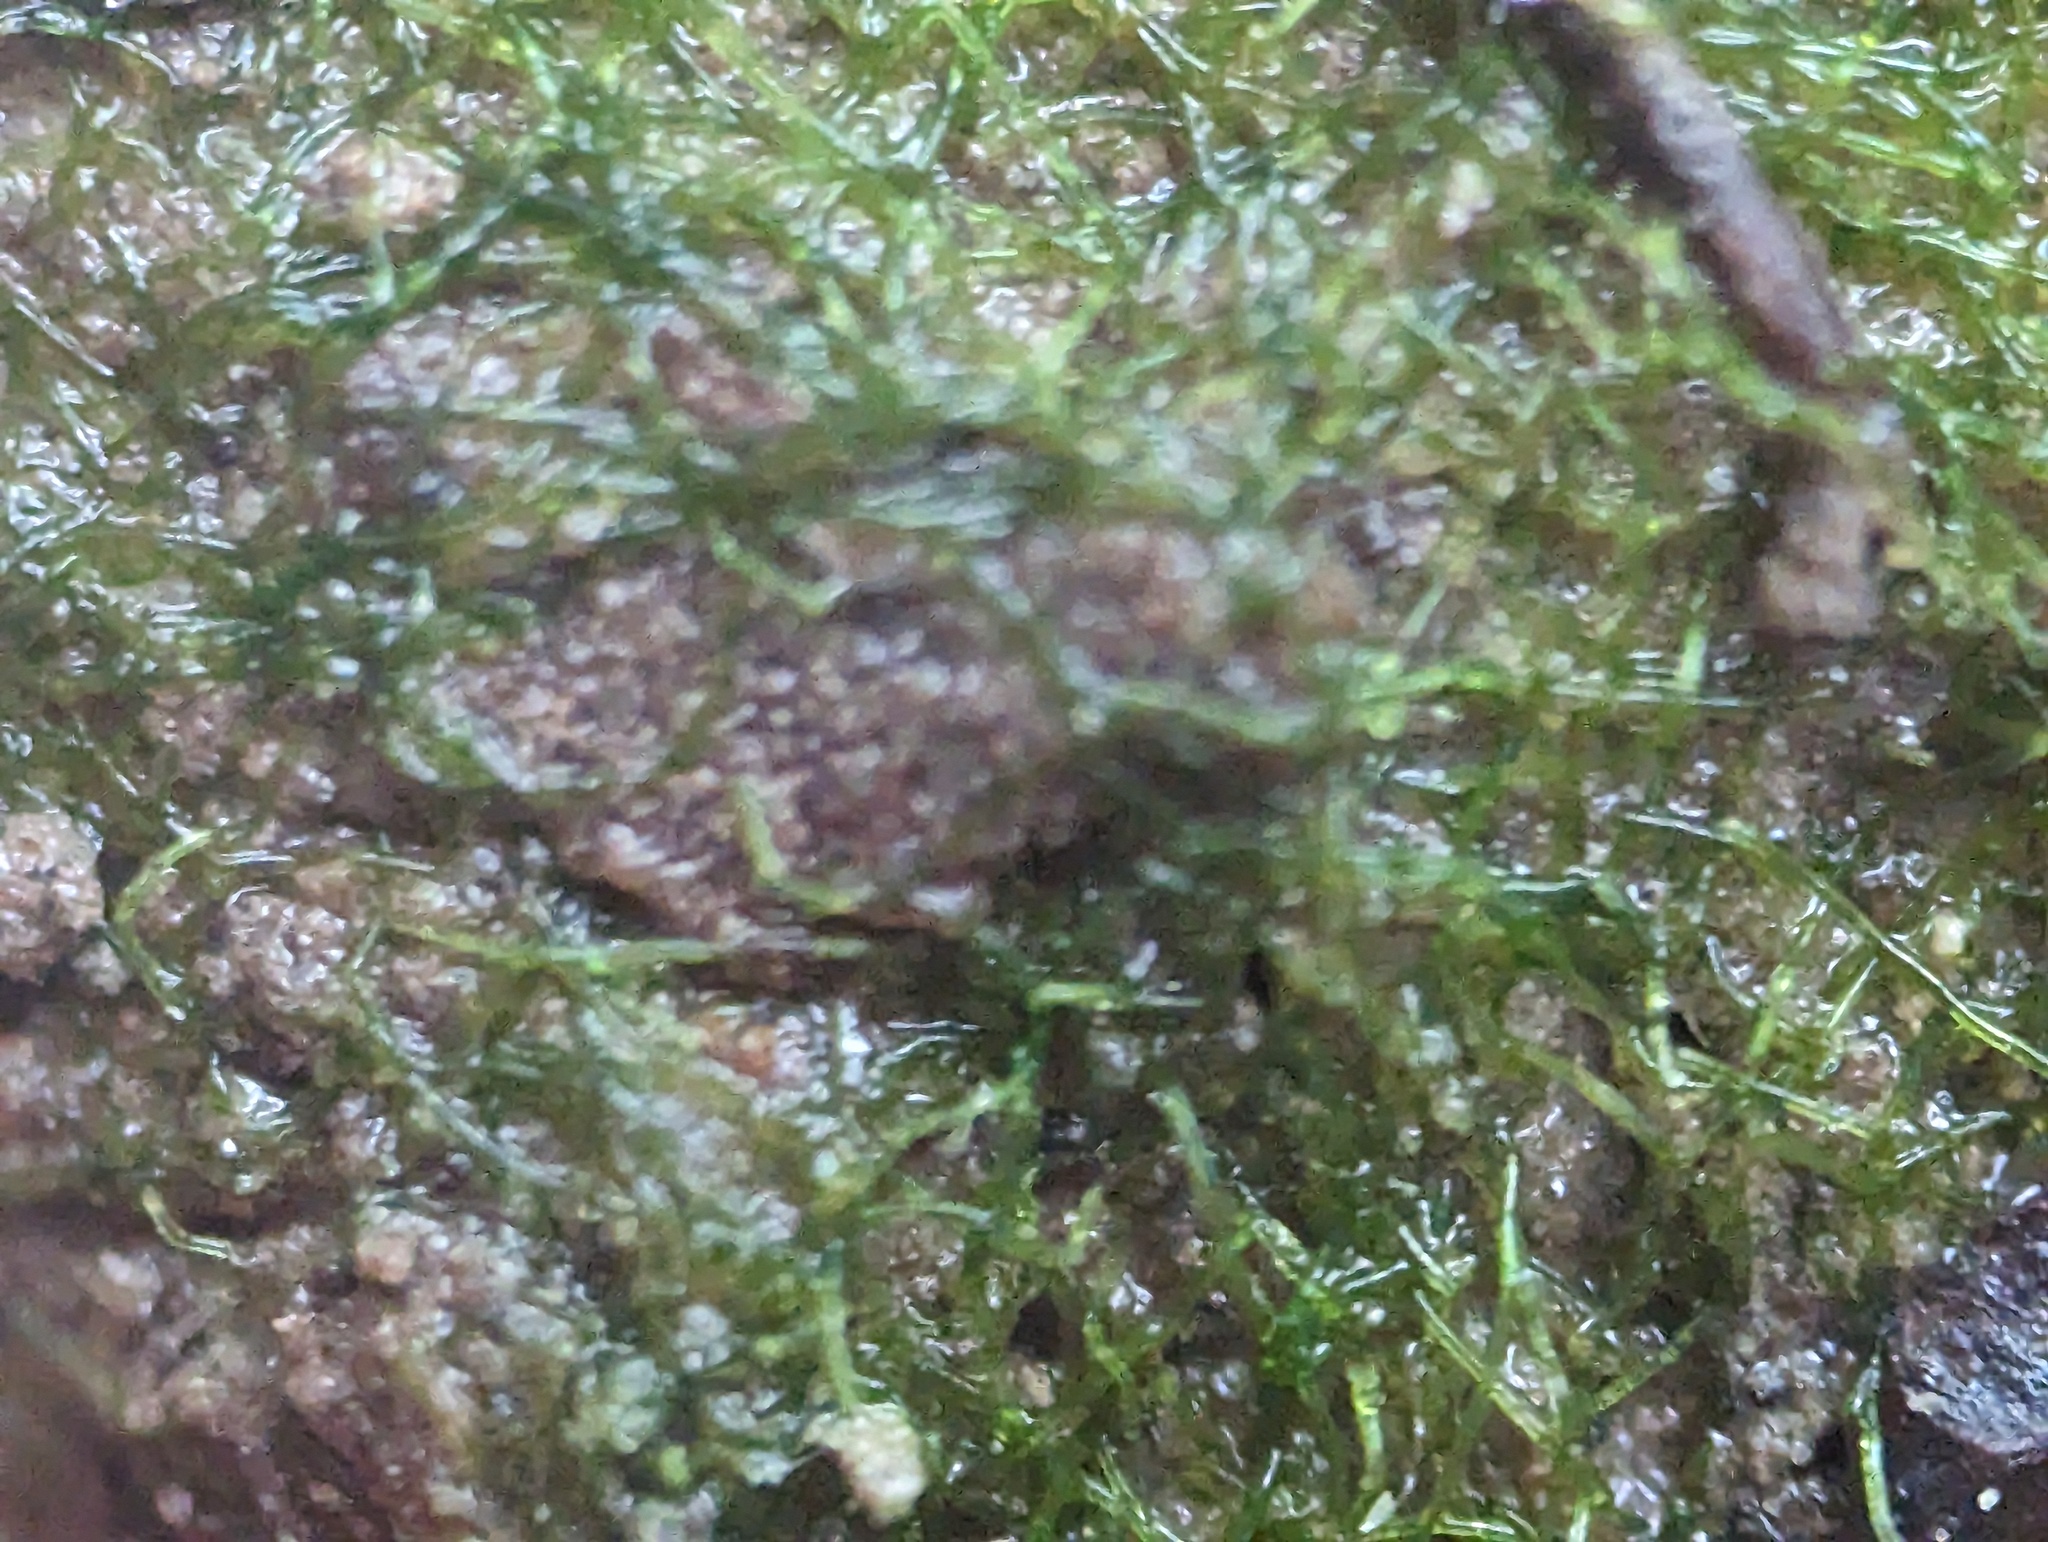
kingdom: Chromista
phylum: Ochrophyta
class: Xanthophyceae
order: Vaucheriales
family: Vaucheriaceae
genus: Vaucheria
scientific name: Vaucheria
